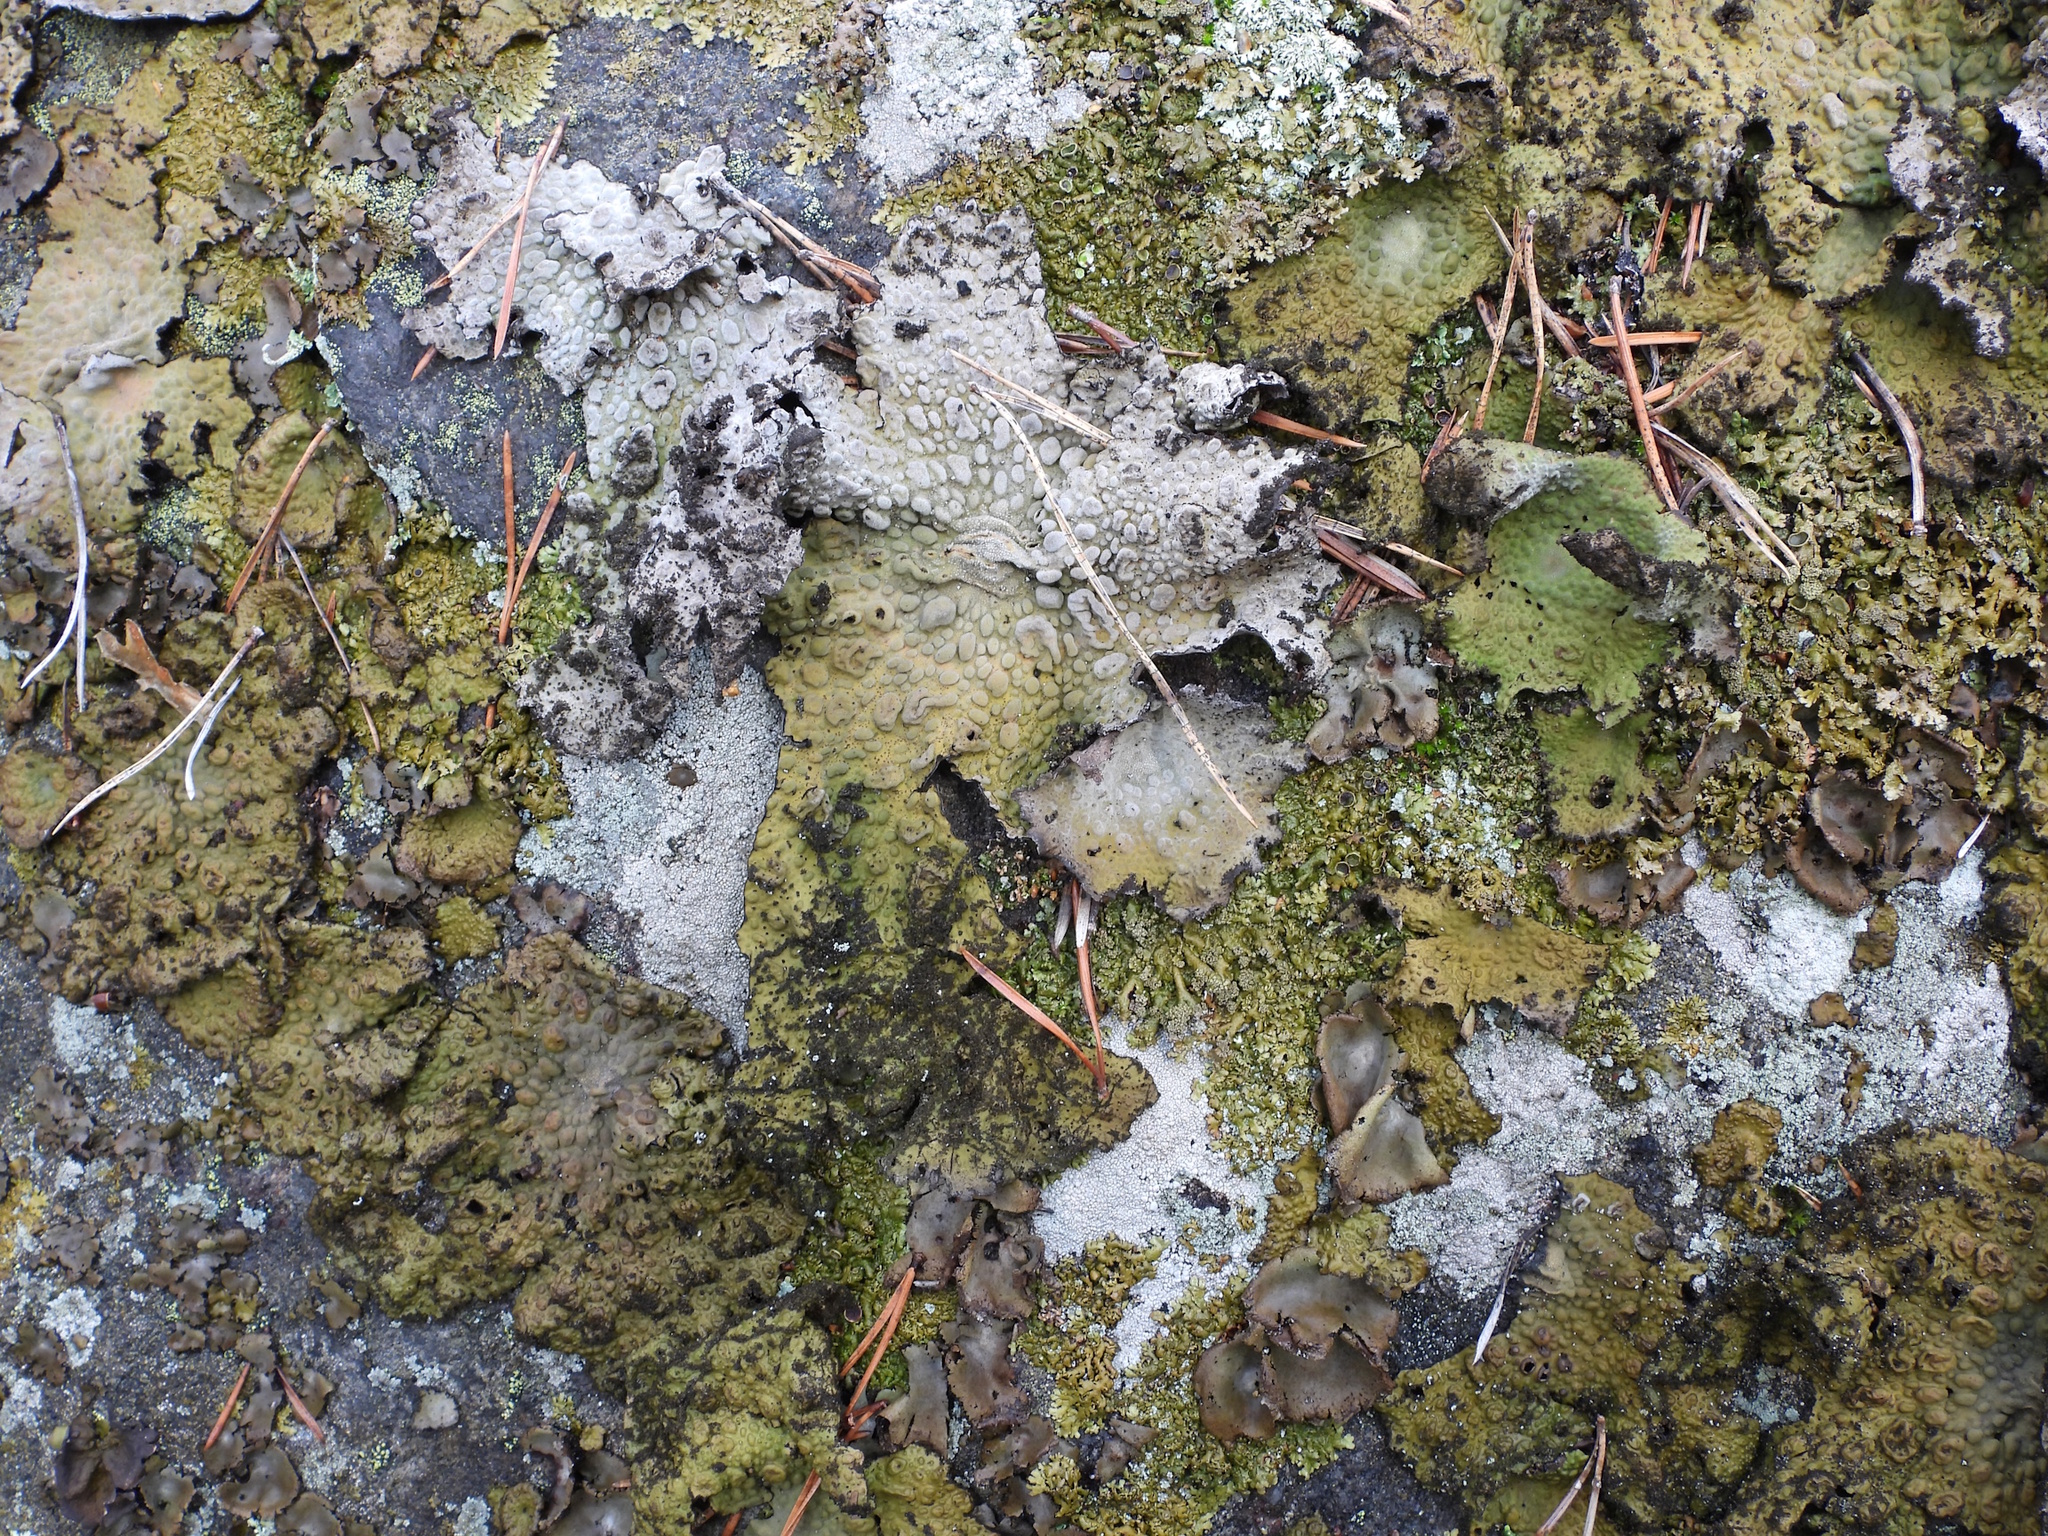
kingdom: Fungi
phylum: Ascomycota
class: Lecanoromycetes
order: Umbilicariales
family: Umbilicariaceae
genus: Lasallia
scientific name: Lasallia pustulata
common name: Blistered toadskin lichen
